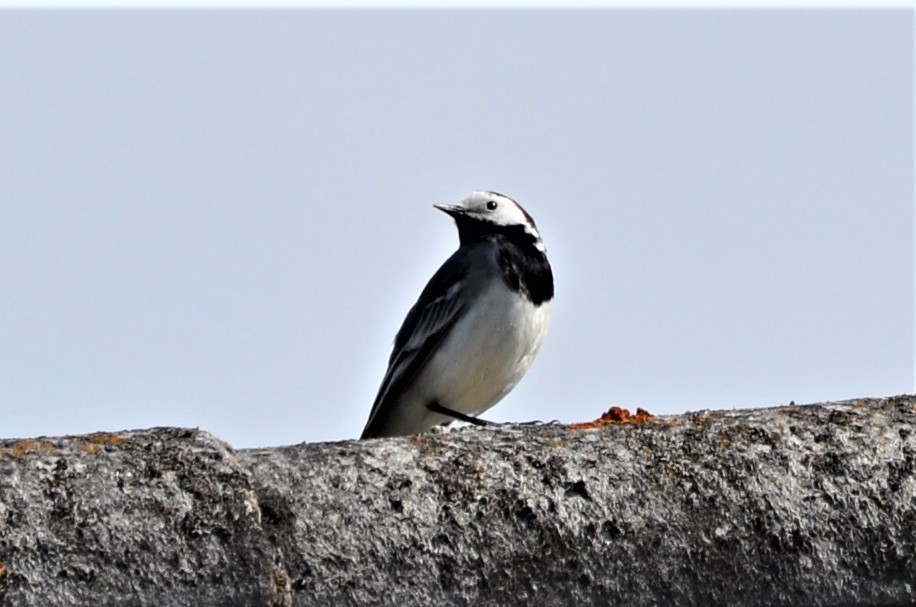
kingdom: Animalia
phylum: Chordata
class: Aves
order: Passeriformes
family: Motacillidae
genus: Motacilla
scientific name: Motacilla alba
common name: White wagtail
